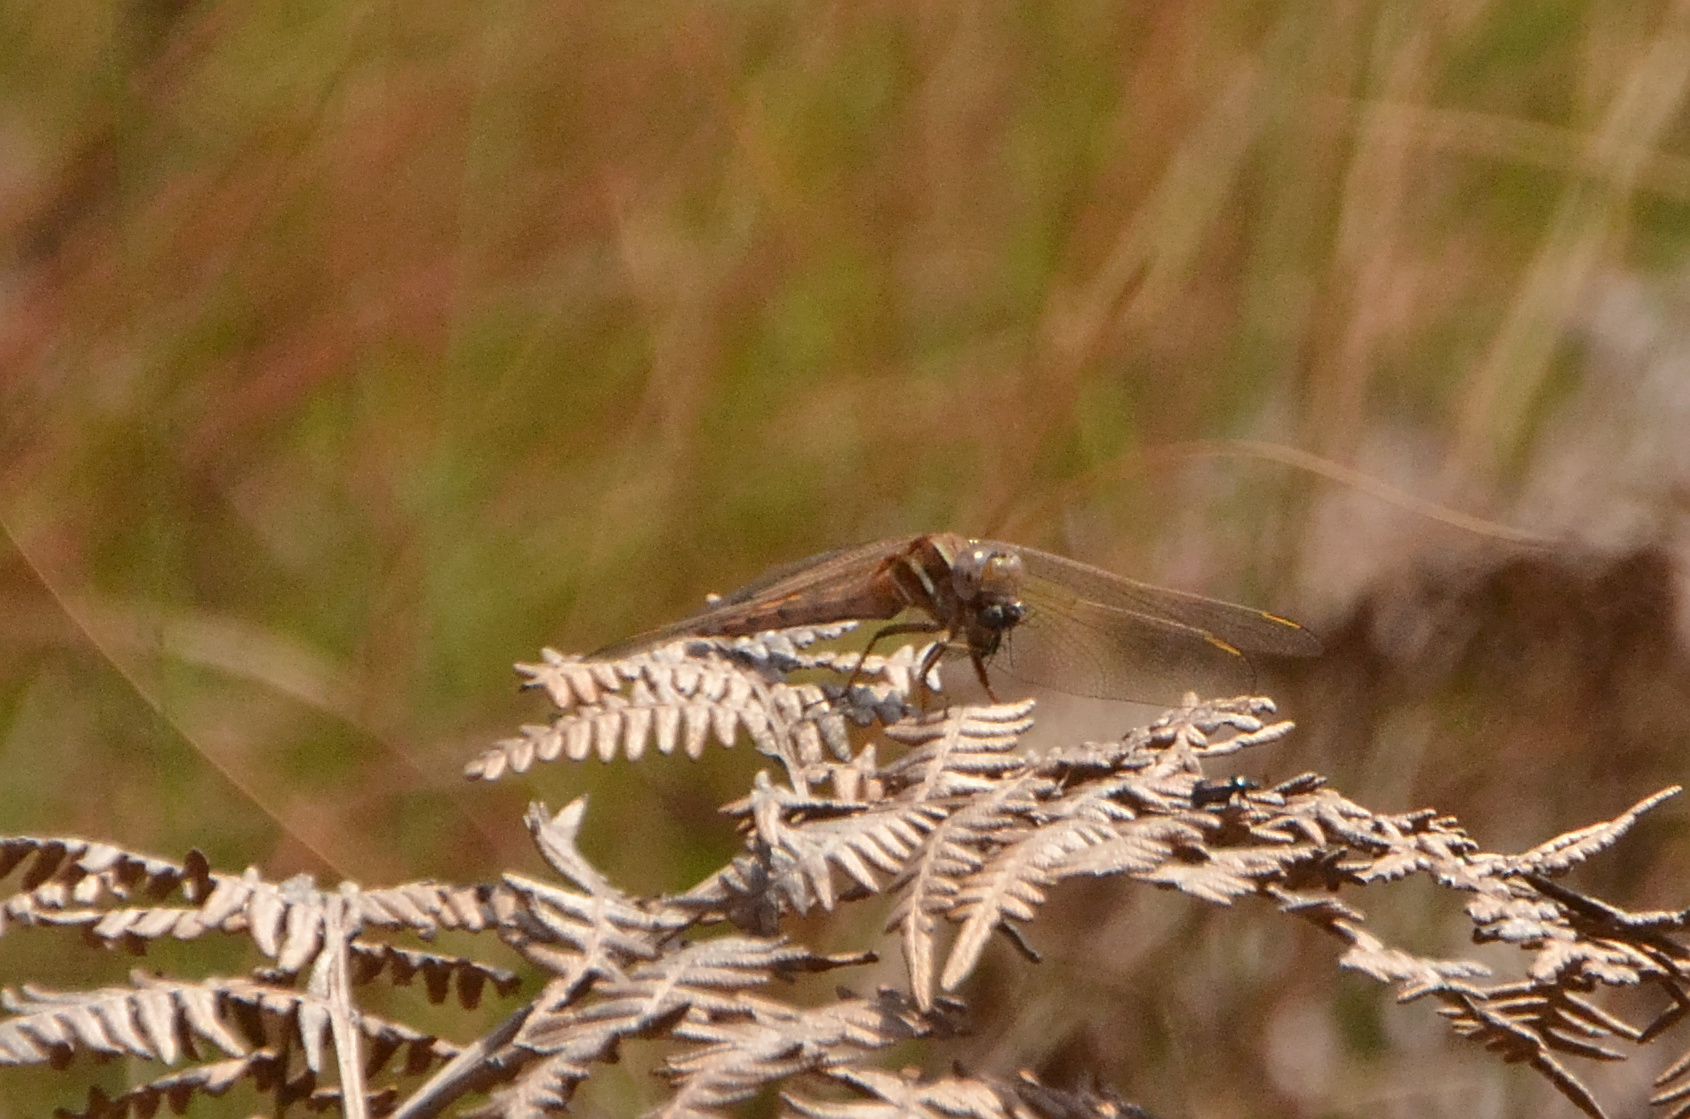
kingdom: Animalia
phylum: Arthropoda
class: Insecta
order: Odonata
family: Libellulidae
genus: Orthetrum
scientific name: Orthetrum caffrum
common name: Two-striped skimmer
